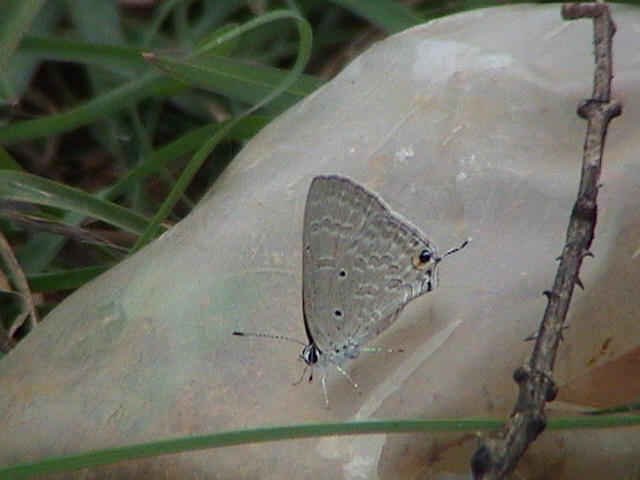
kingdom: Animalia
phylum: Arthropoda
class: Insecta
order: Lepidoptera
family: Lycaenidae
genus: Catochrysops
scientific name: Catochrysops strabo
